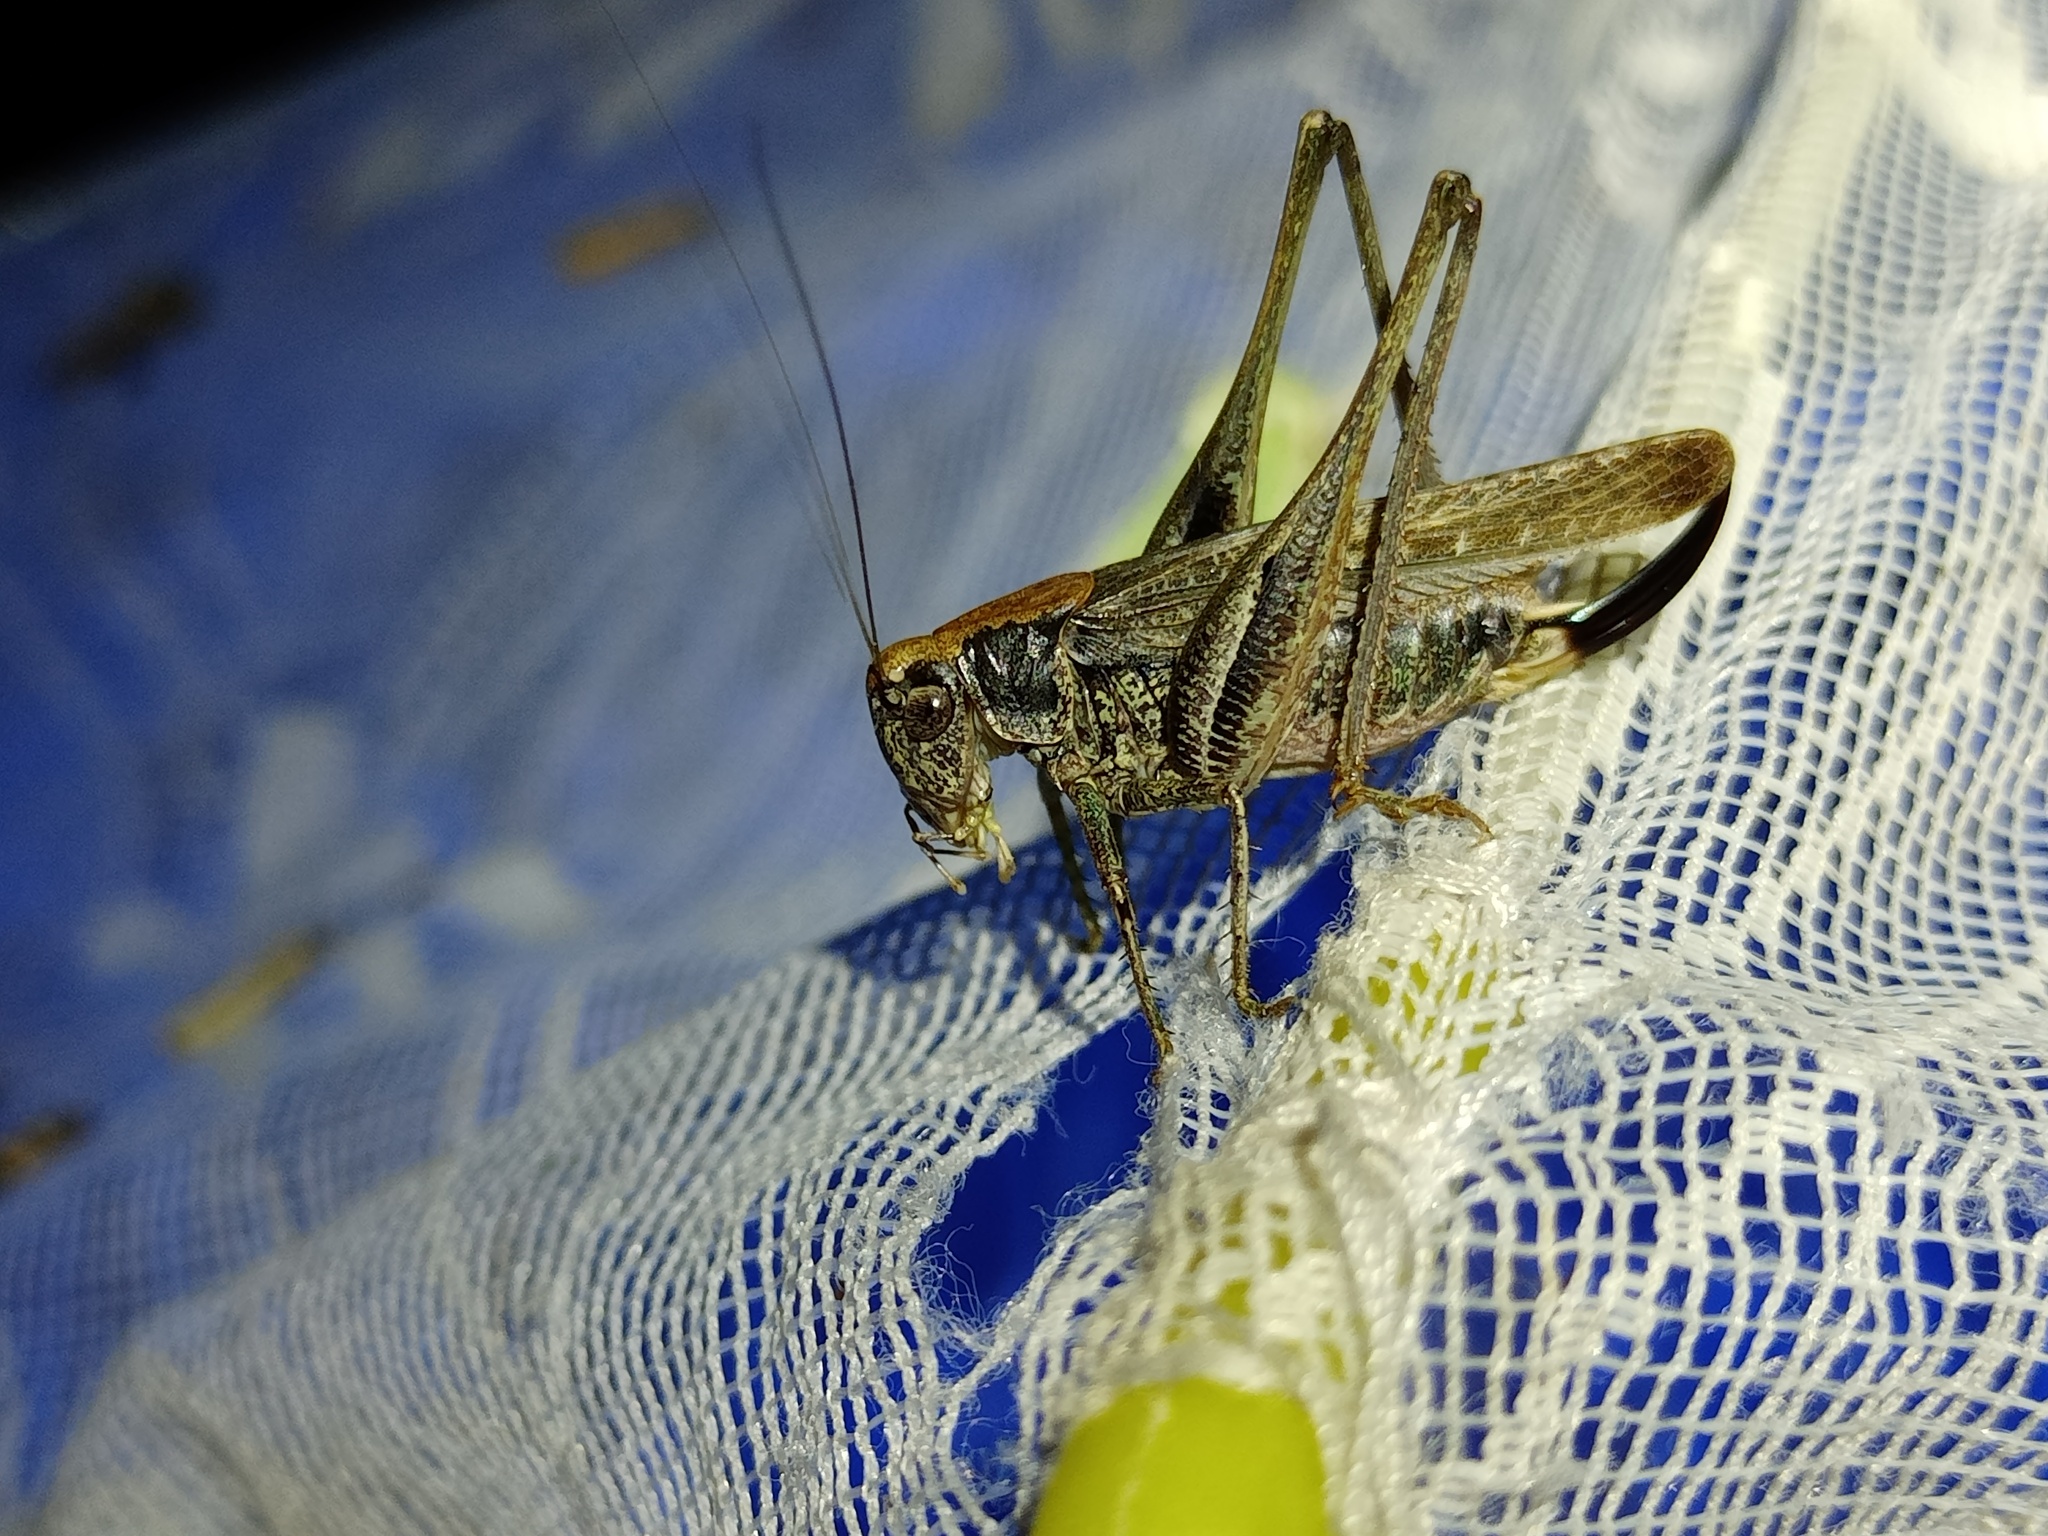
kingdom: Animalia
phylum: Arthropoda
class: Insecta
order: Orthoptera
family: Tettigoniidae
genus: Platycleis
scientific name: Platycleis albopunctata
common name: Grey bush-cricket
